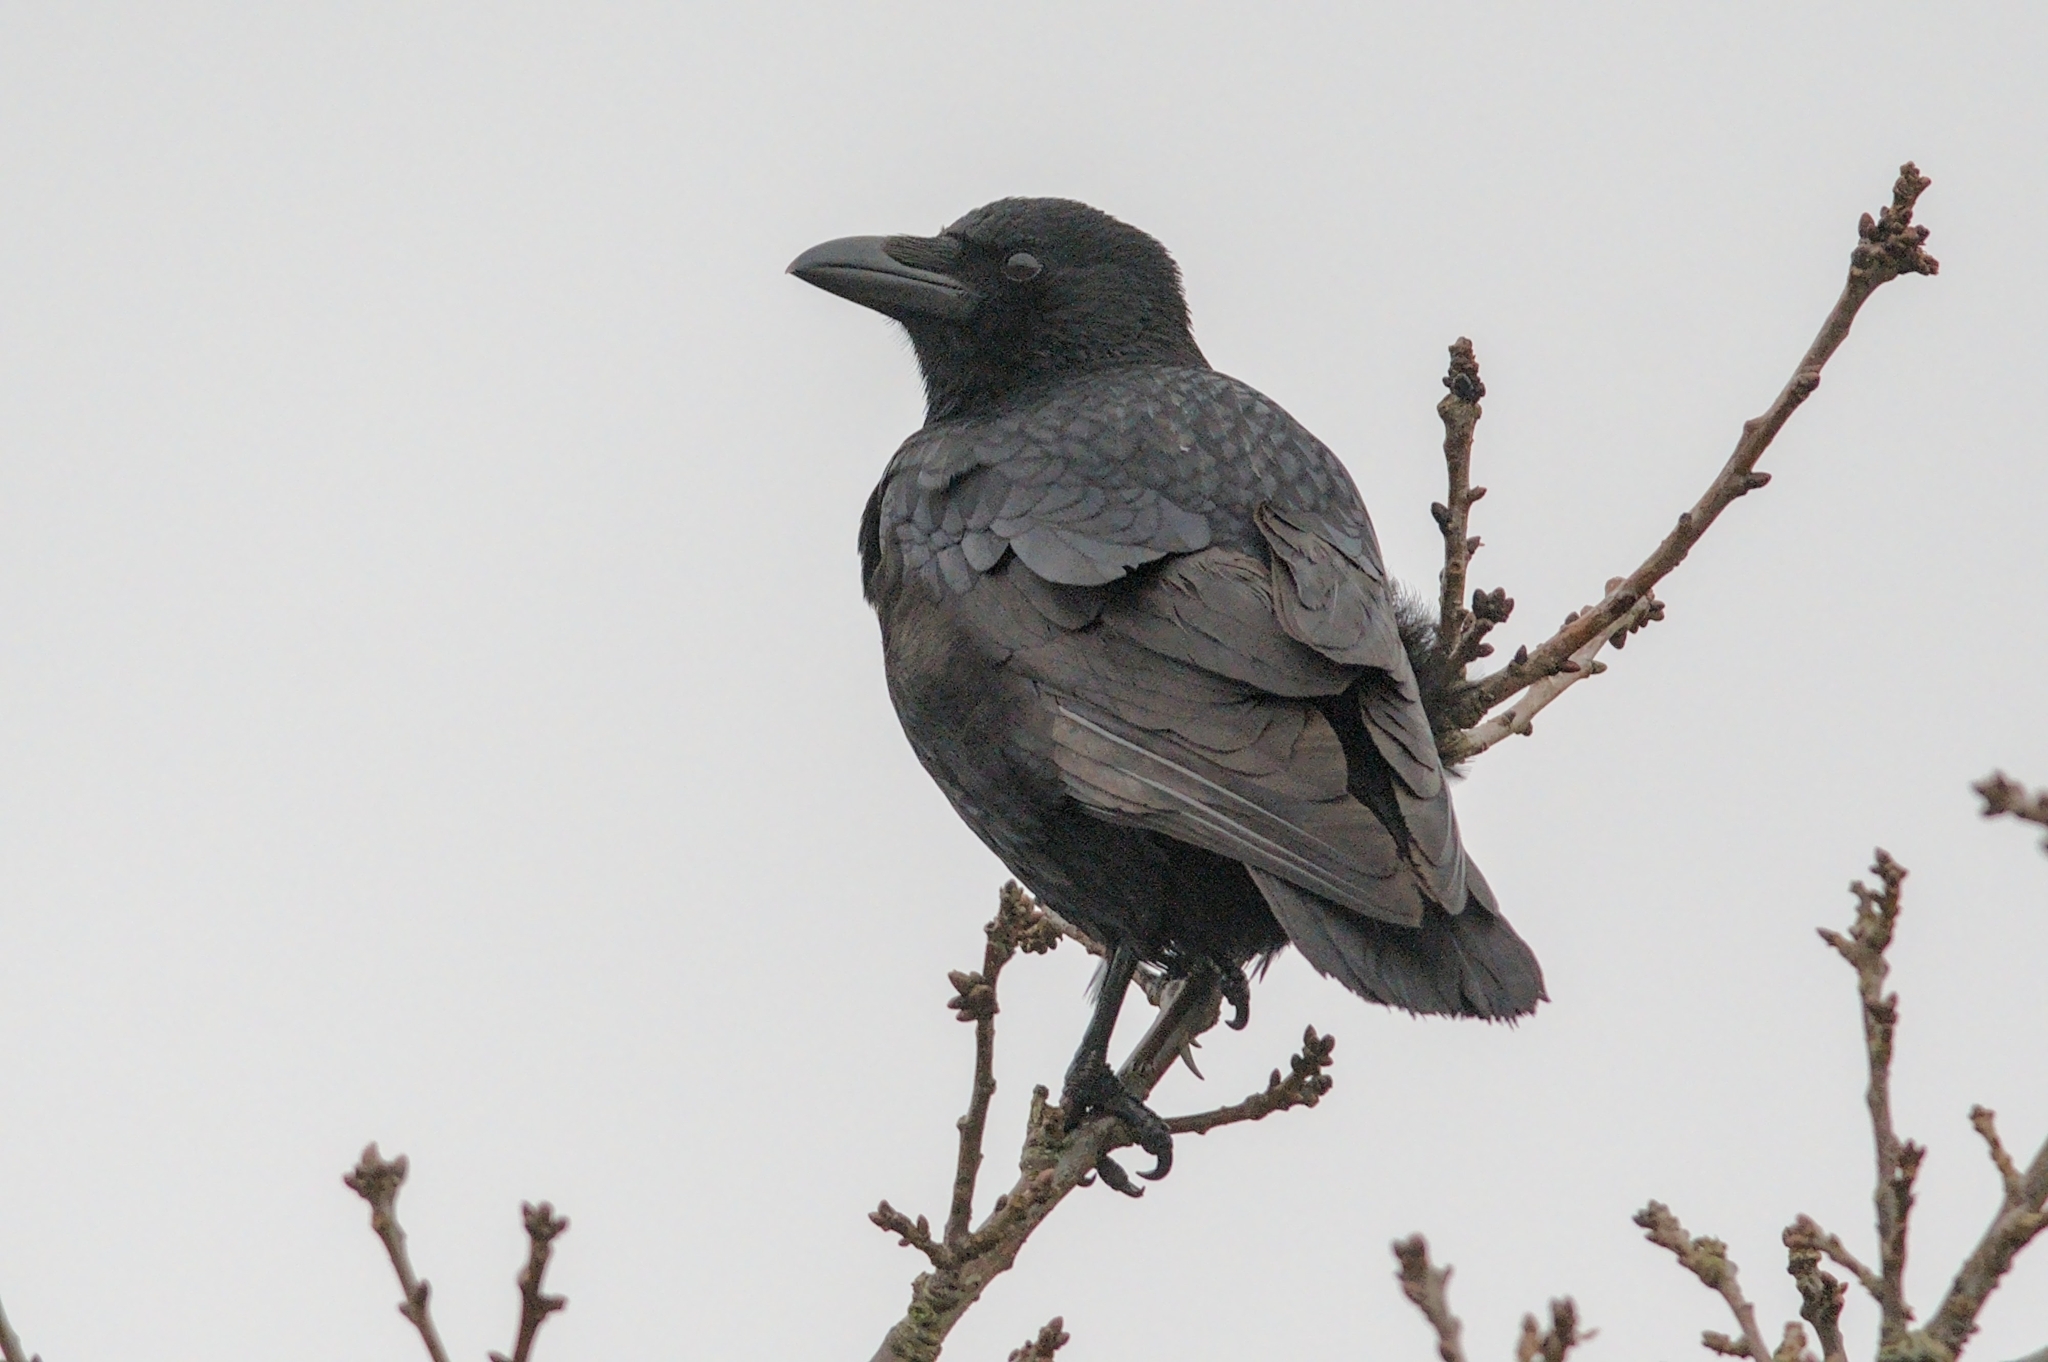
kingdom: Animalia
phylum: Chordata
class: Aves
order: Passeriformes
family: Corvidae
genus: Corvus
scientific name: Corvus corone
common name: Carrion crow
